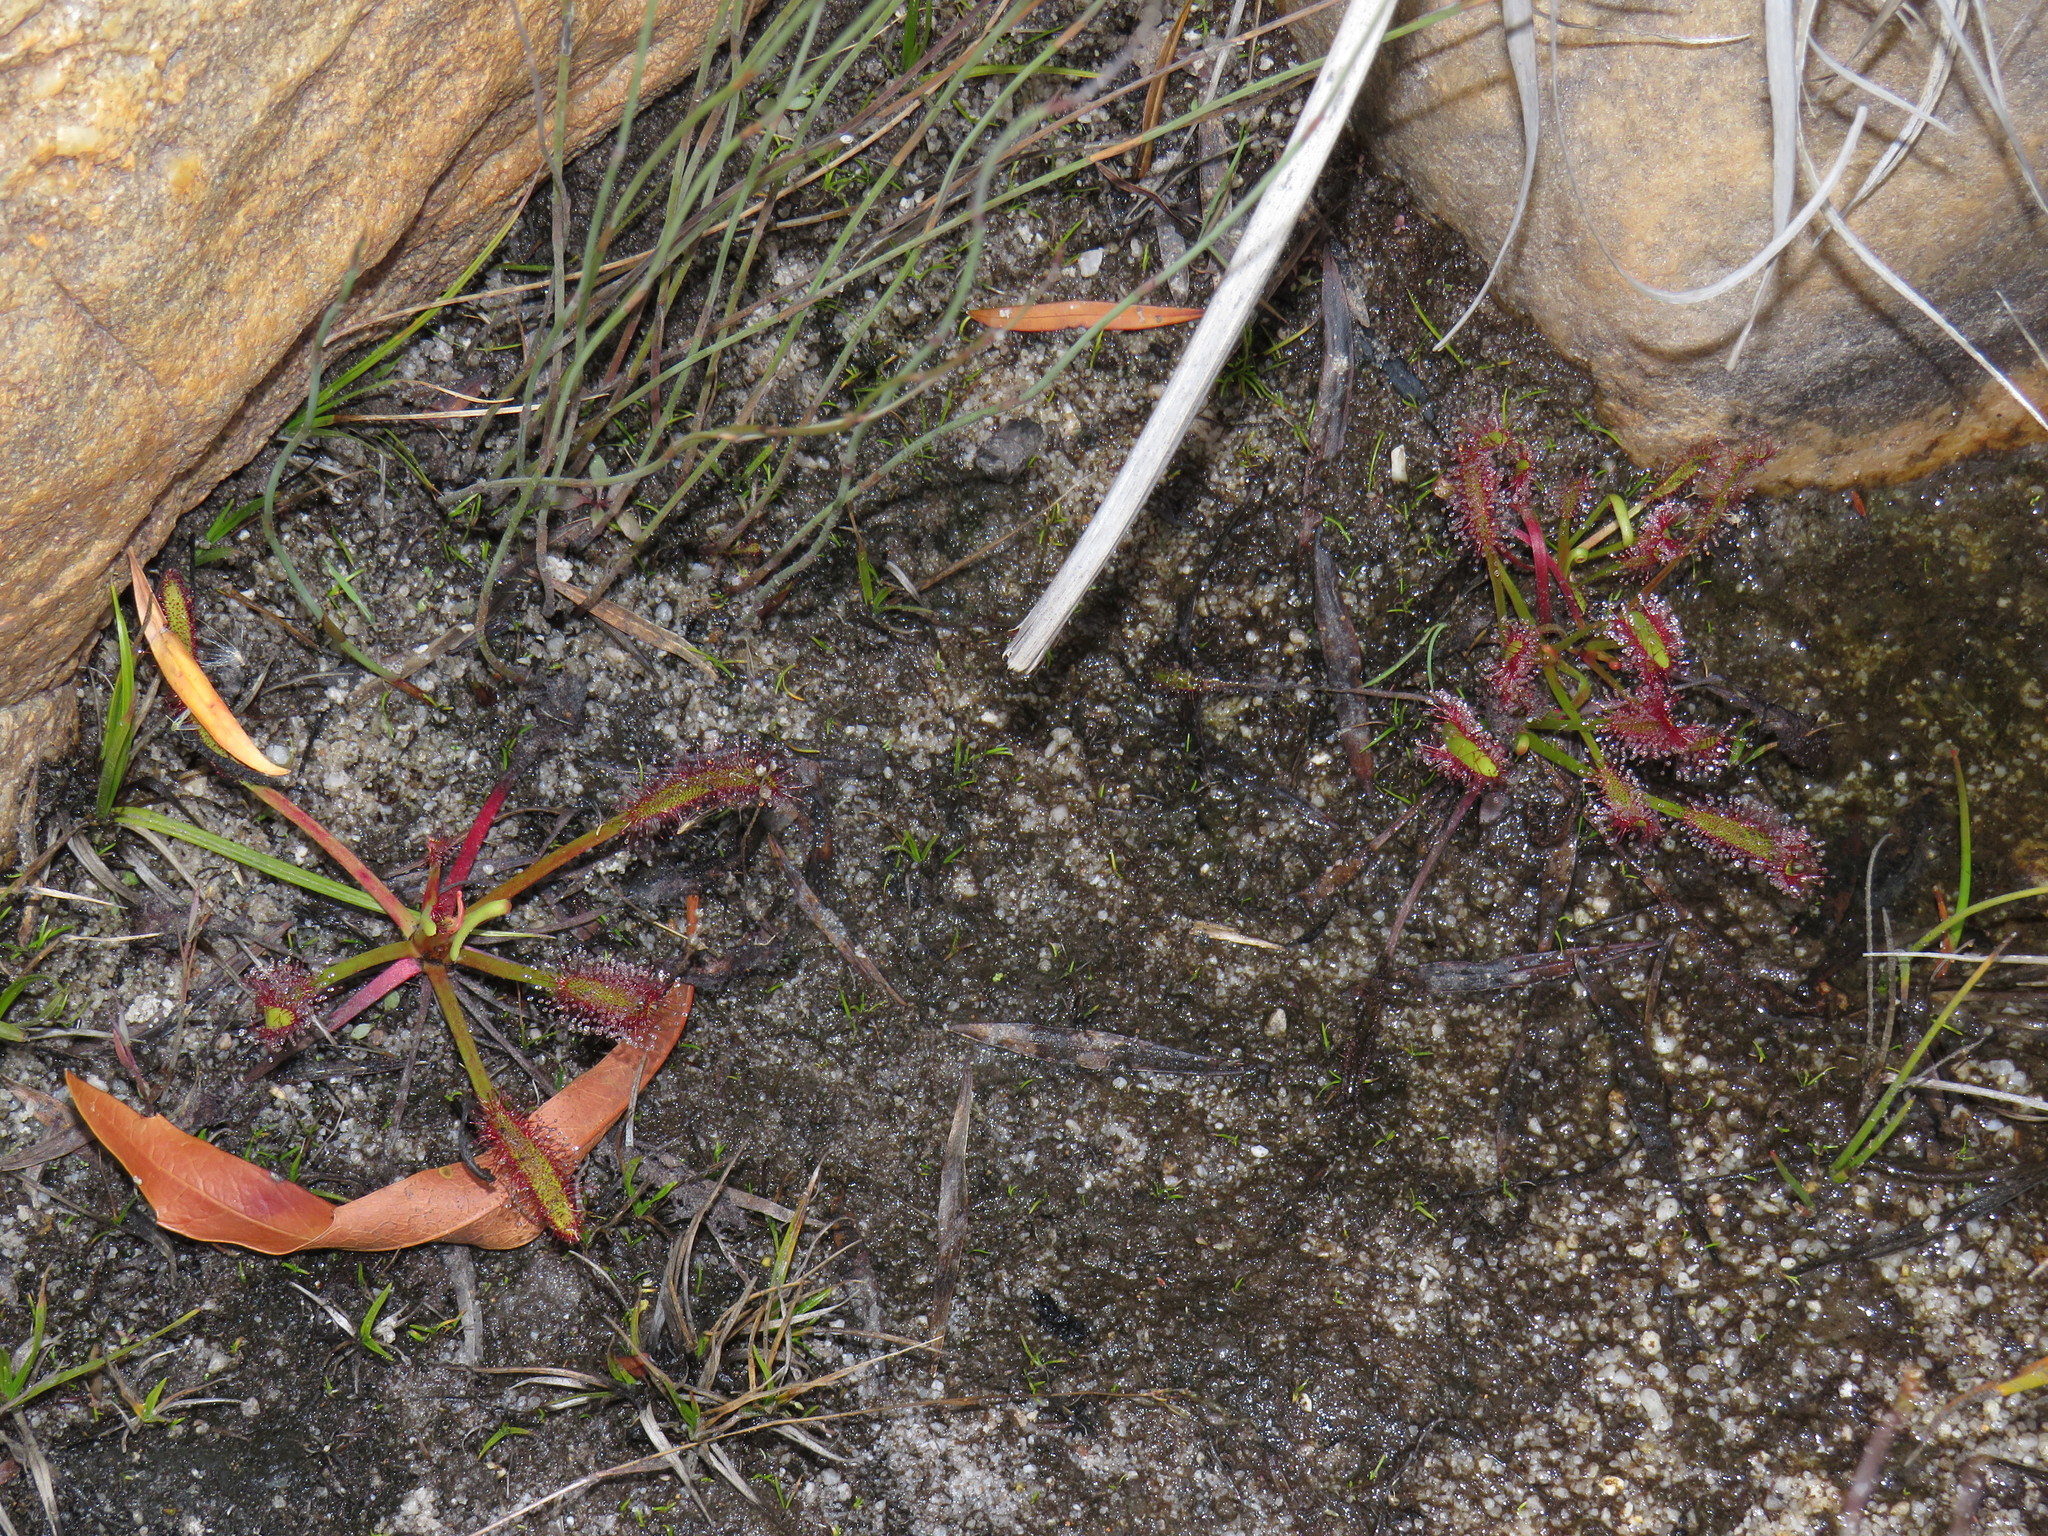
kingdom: Plantae
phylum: Tracheophyta
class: Magnoliopsida
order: Caryophyllales
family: Droseraceae
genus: Drosera
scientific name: Drosera capensis
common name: Cape sundew
